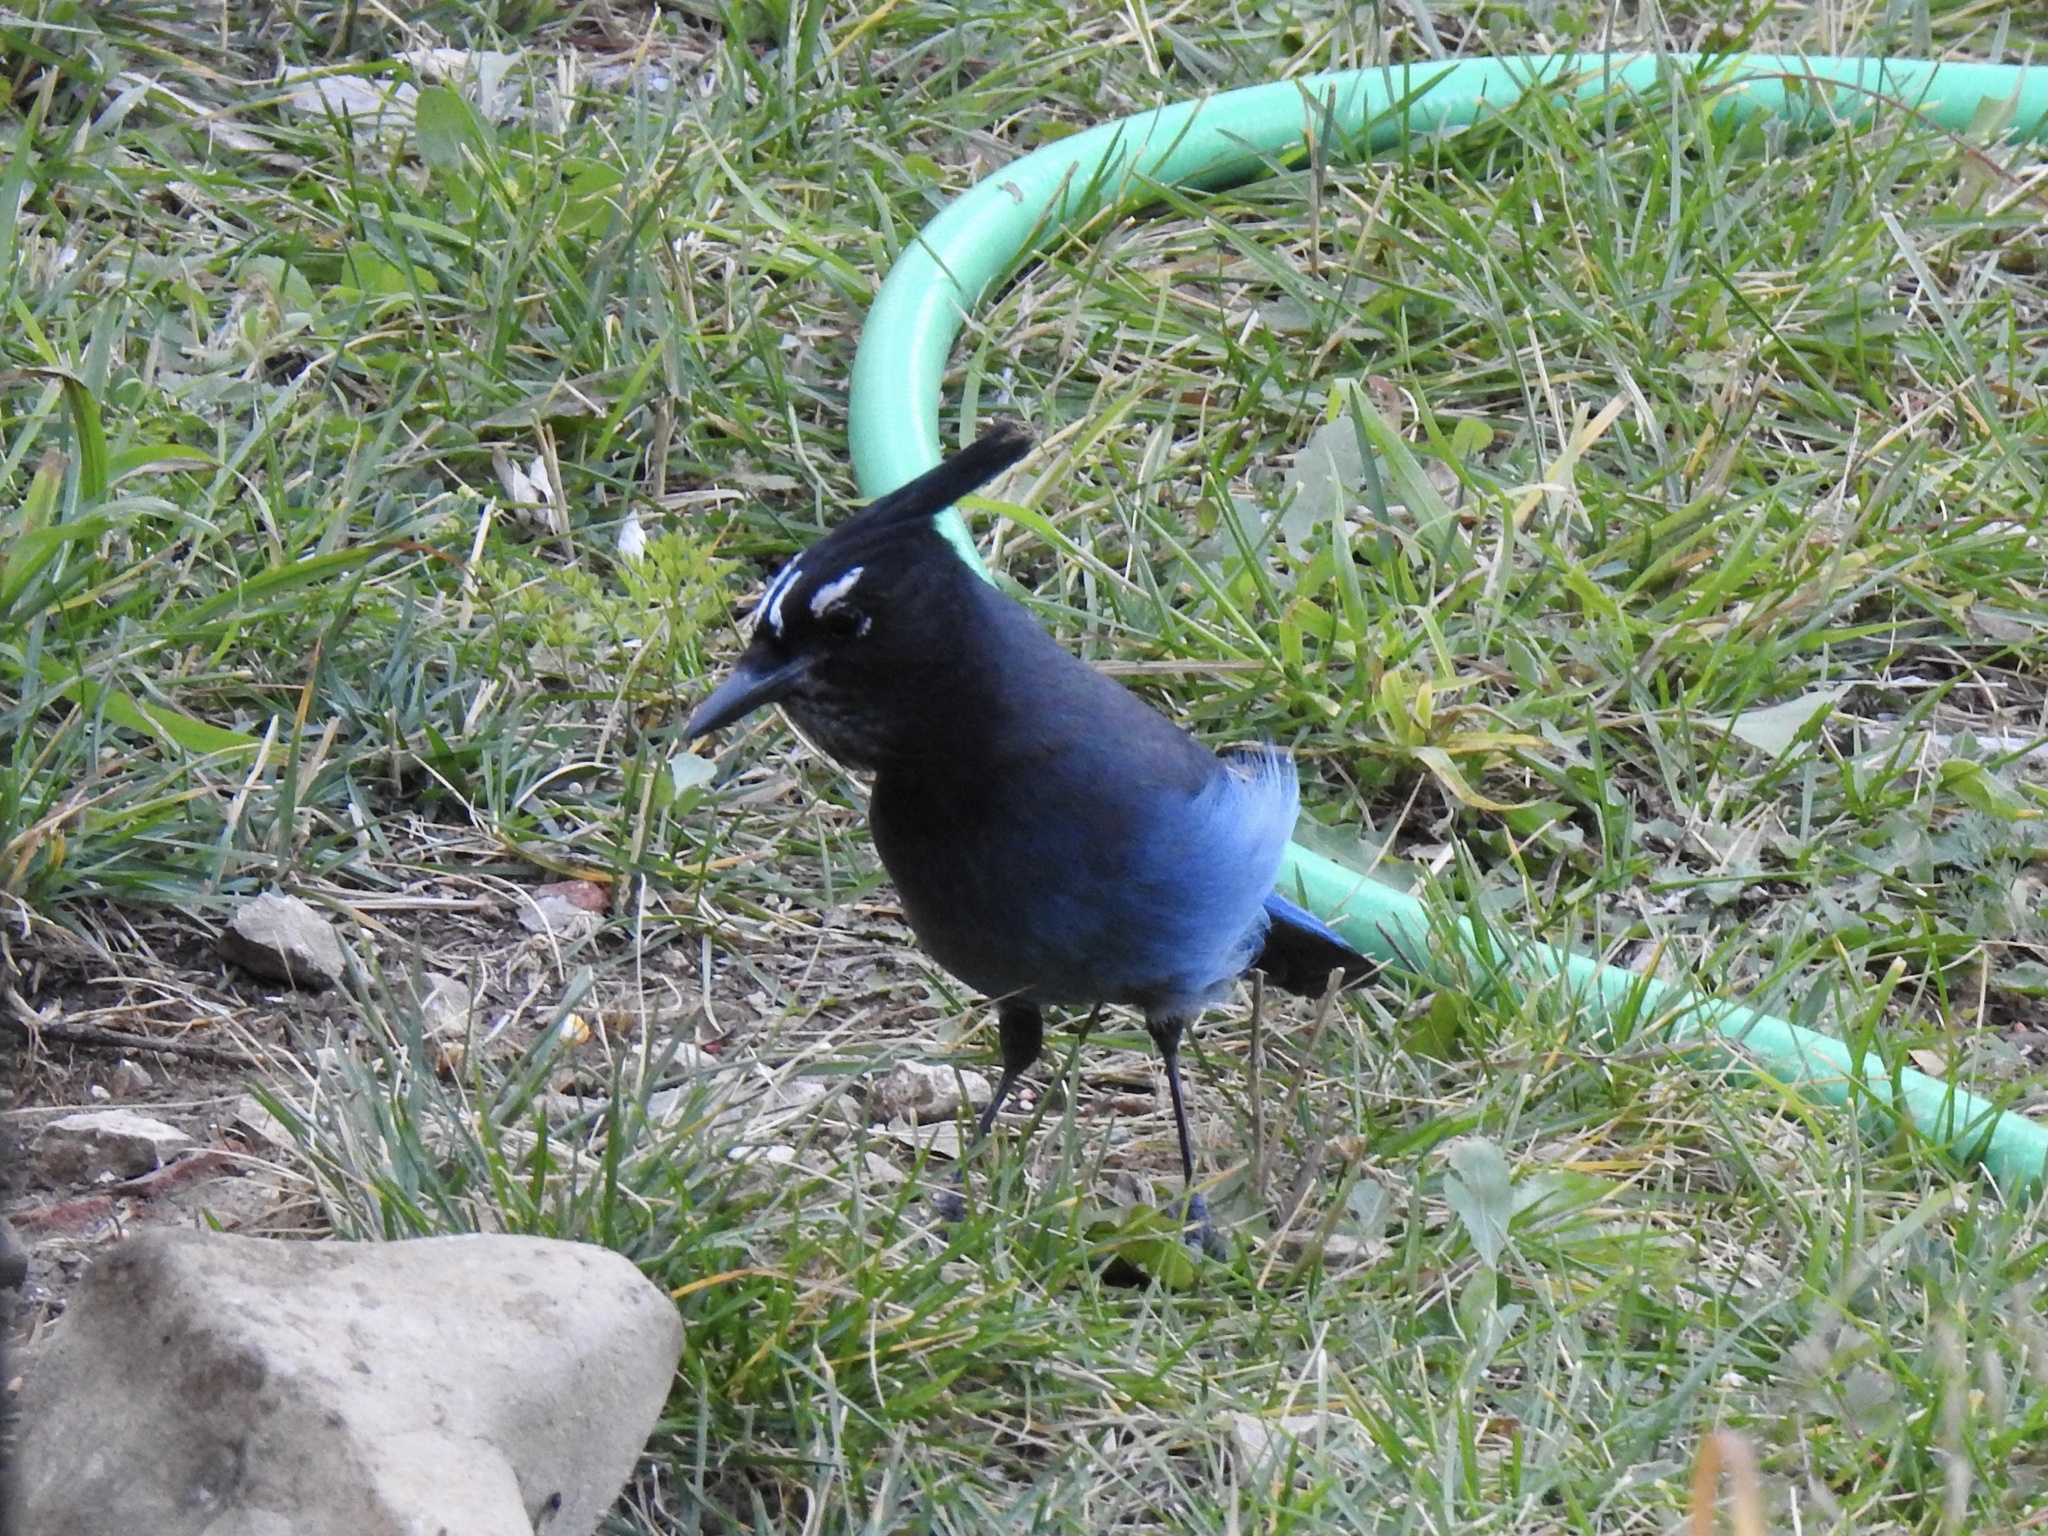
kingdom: Animalia
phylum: Chordata
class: Aves
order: Passeriformes
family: Corvidae
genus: Cyanocitta
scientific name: Cyanocitta stelleri
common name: Steller's jay
